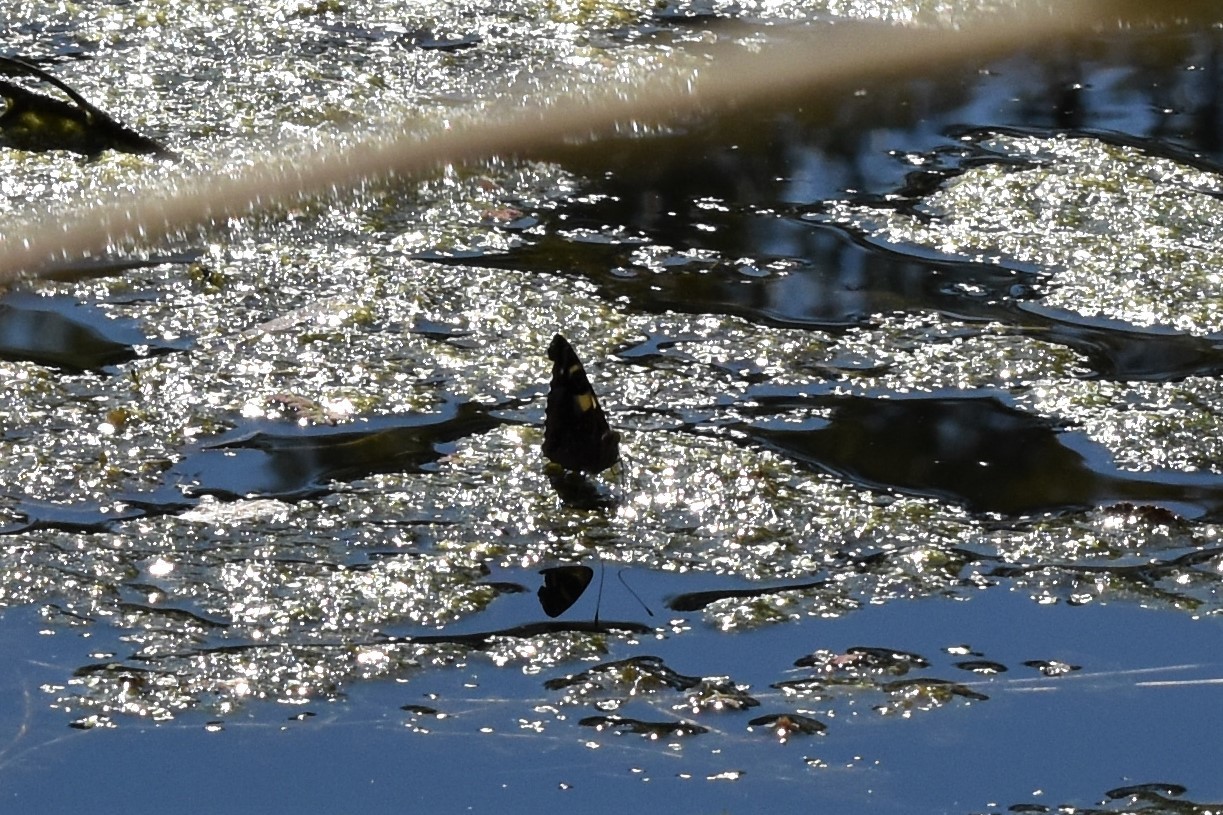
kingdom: Animalia
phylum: Arthropoda
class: Insecta
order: Lepidoptera
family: Nymphalidae
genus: Vanessa
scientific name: Vanessa itea
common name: Yellow admiral
